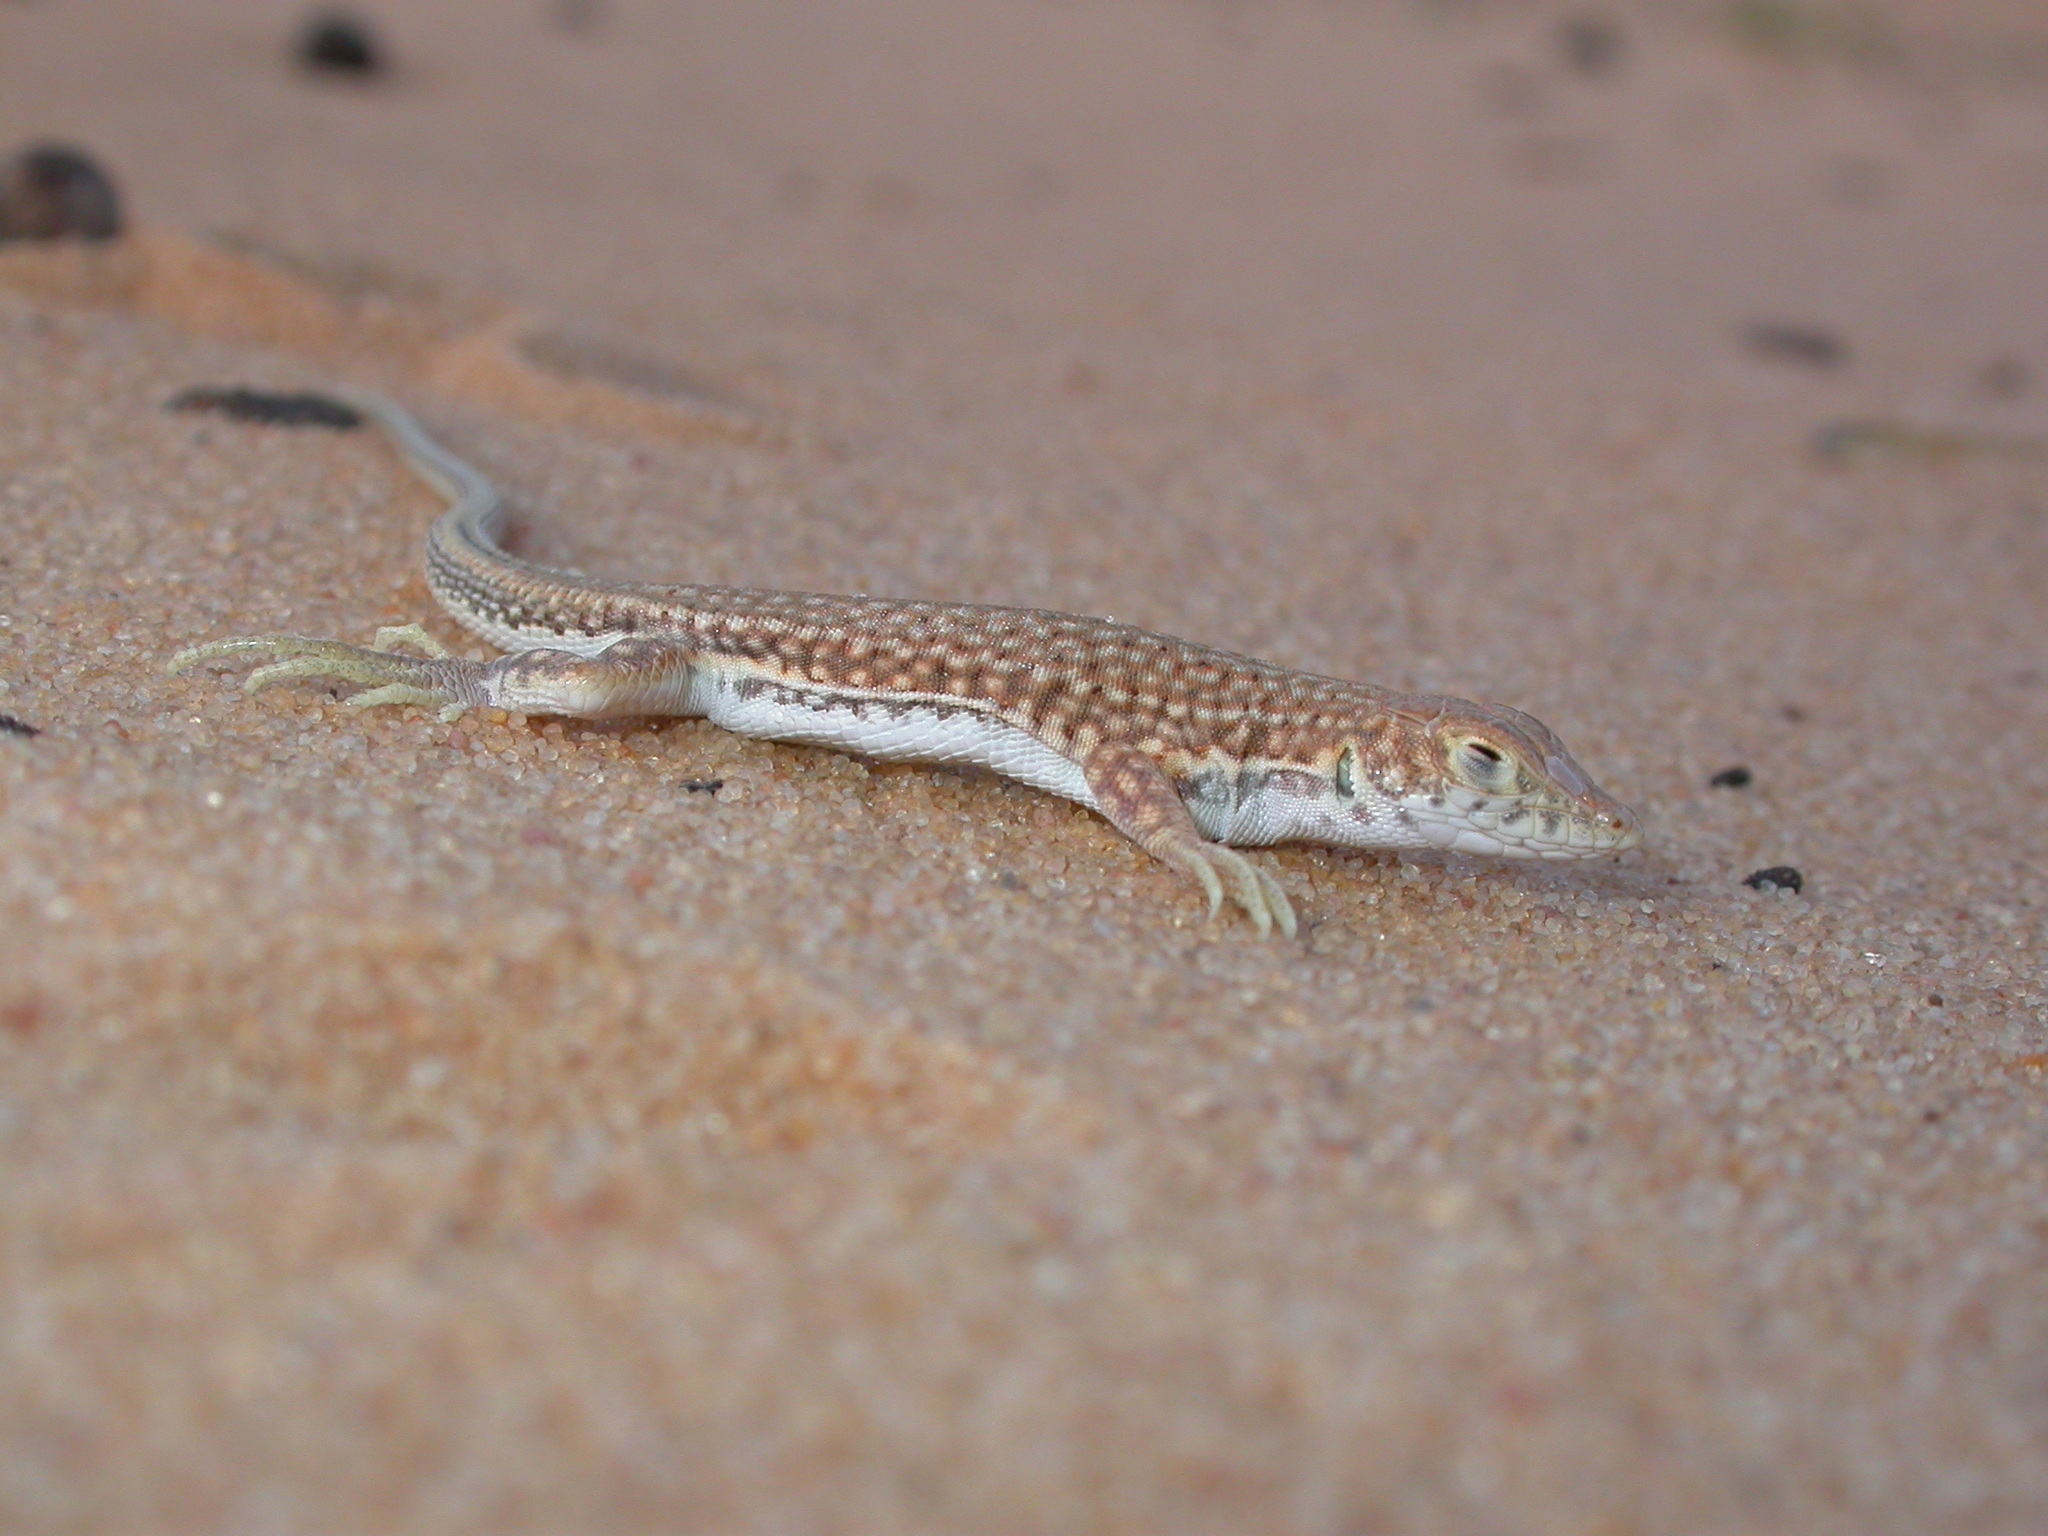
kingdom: Animalia
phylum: Chordata
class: Squamata
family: Lacertidae
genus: Acanthodactylus
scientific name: Acanthodactylus dumerilii
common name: Duméril's fringe-fingered lizard
